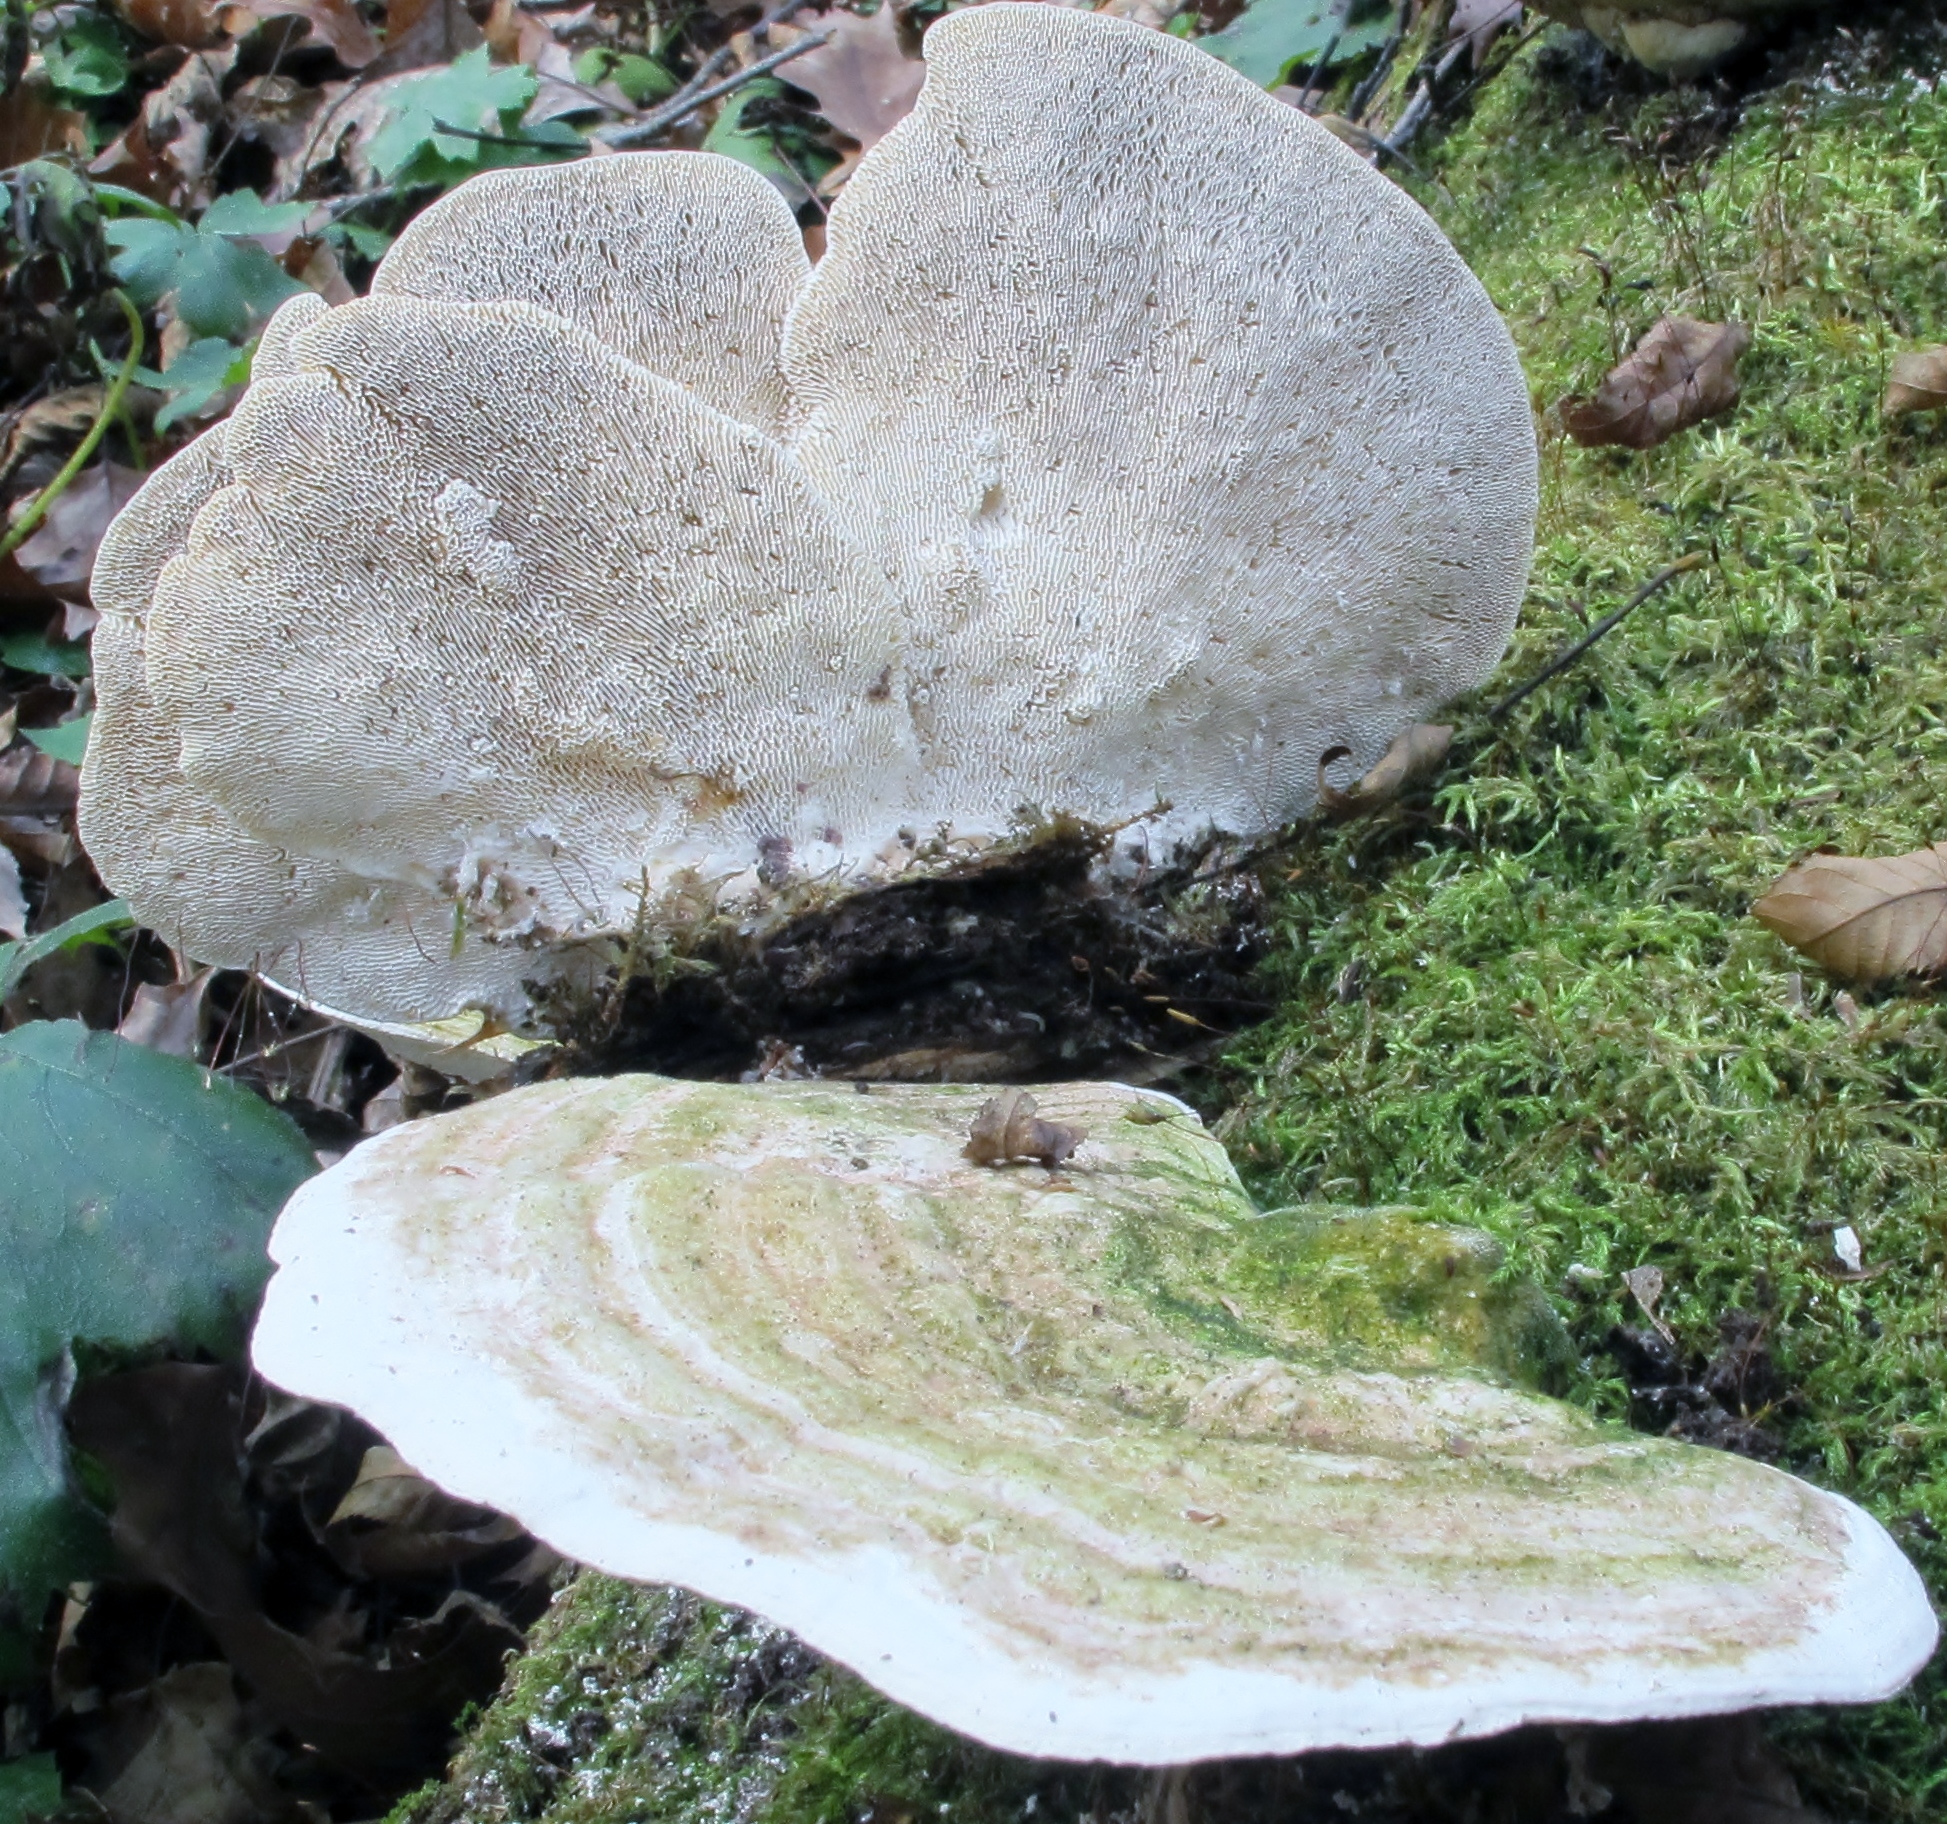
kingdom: Fungi
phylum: Basidiomycota
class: Agaricomycetes
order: Polyporales
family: Polyporaceae
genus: Trametes
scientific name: Trametes gibbosa
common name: Lumpy bracket
